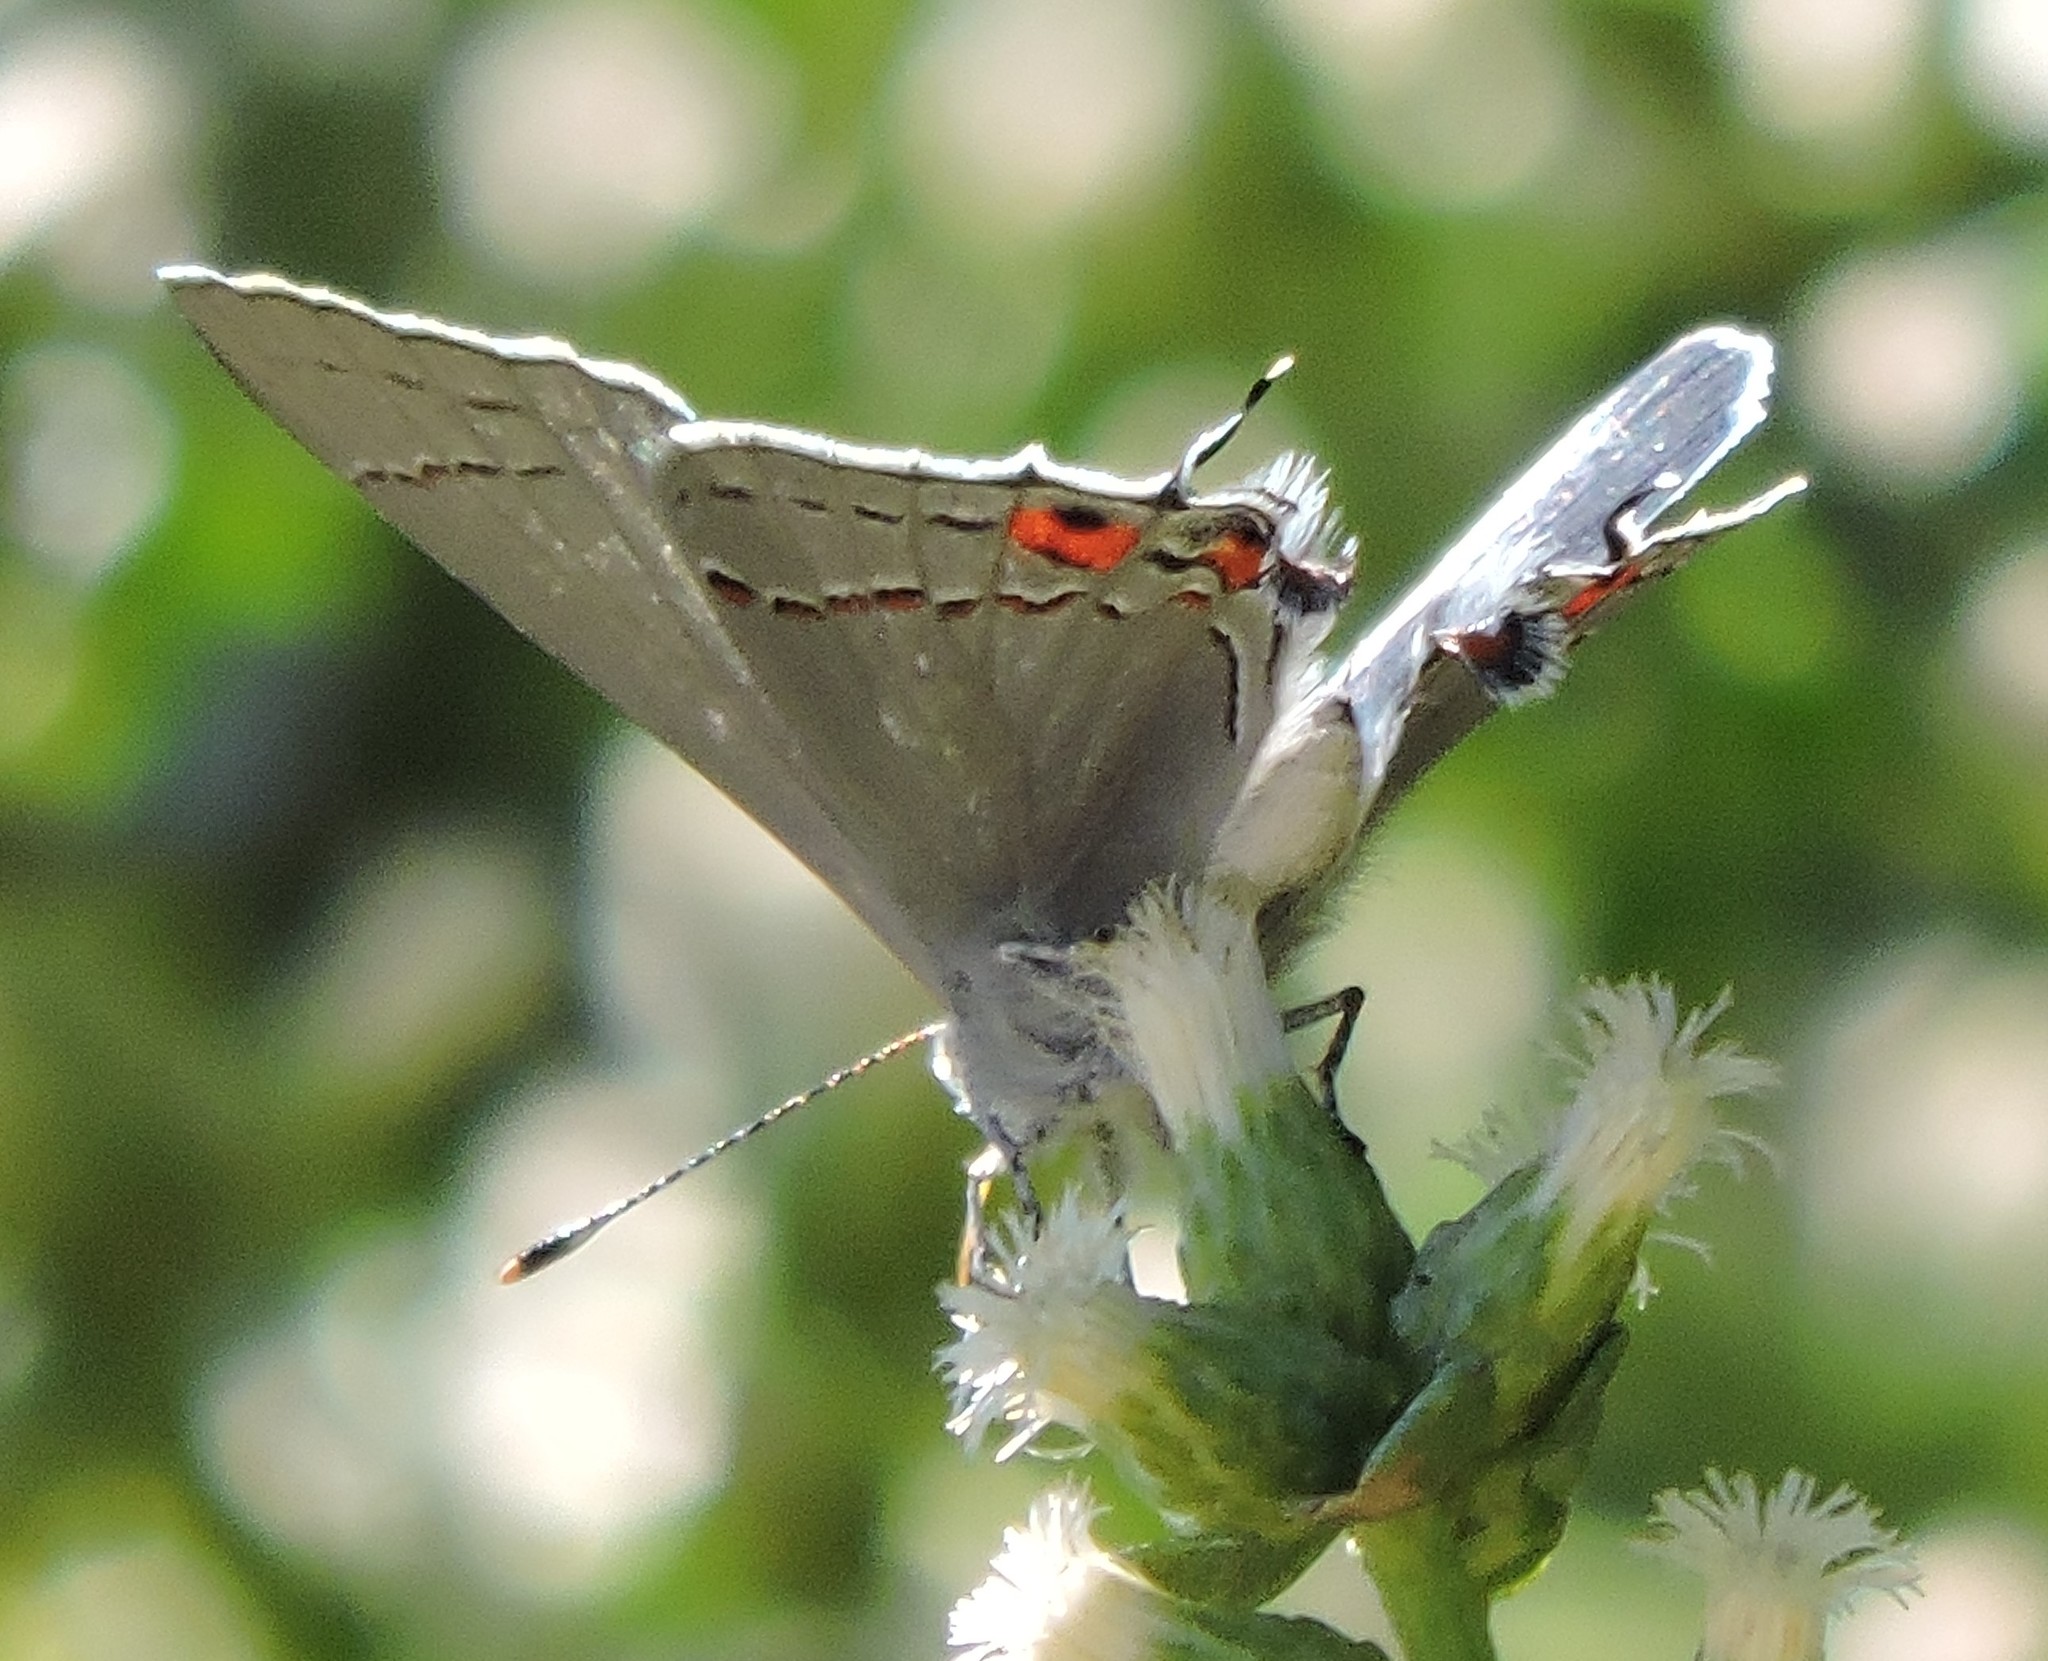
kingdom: Animalia
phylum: Arthropoda
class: Insecta
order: Lepidoptera
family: Lycaenidae
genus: Strymon
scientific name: Strymon melinus
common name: Gray hairstreak
